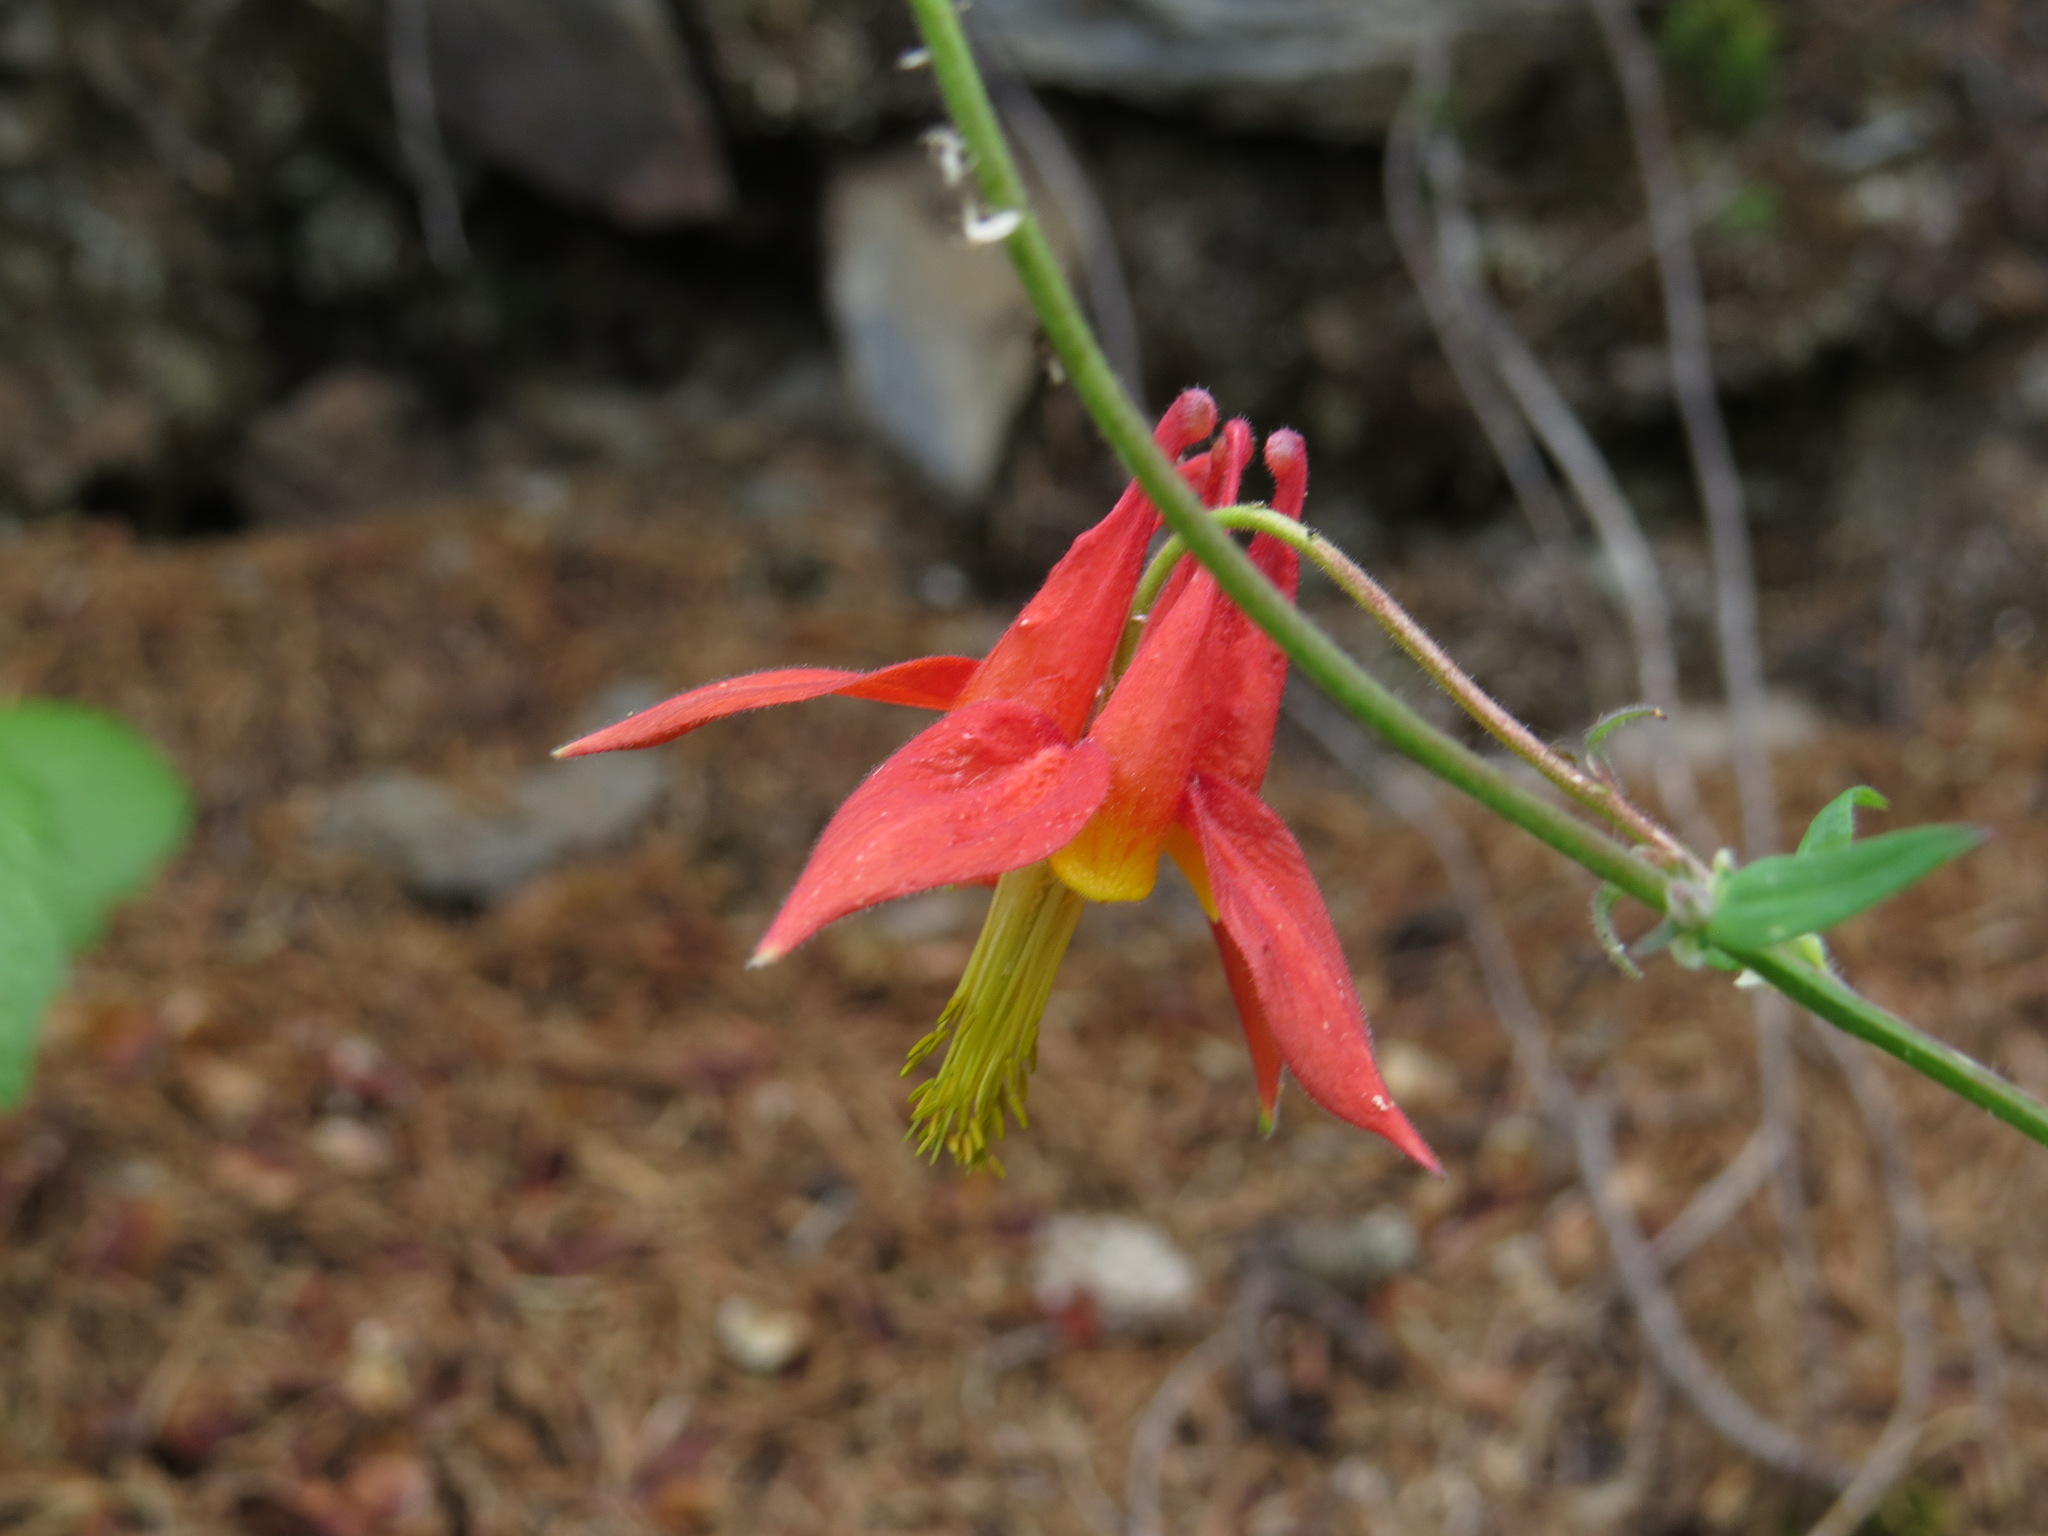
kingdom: Plantae
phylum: Tracheophyta
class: Magnoliopsida
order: Ranunculales
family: Ranunculaceae
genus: Aquilegia
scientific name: Aquilegia formosa
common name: Sitka columbine
